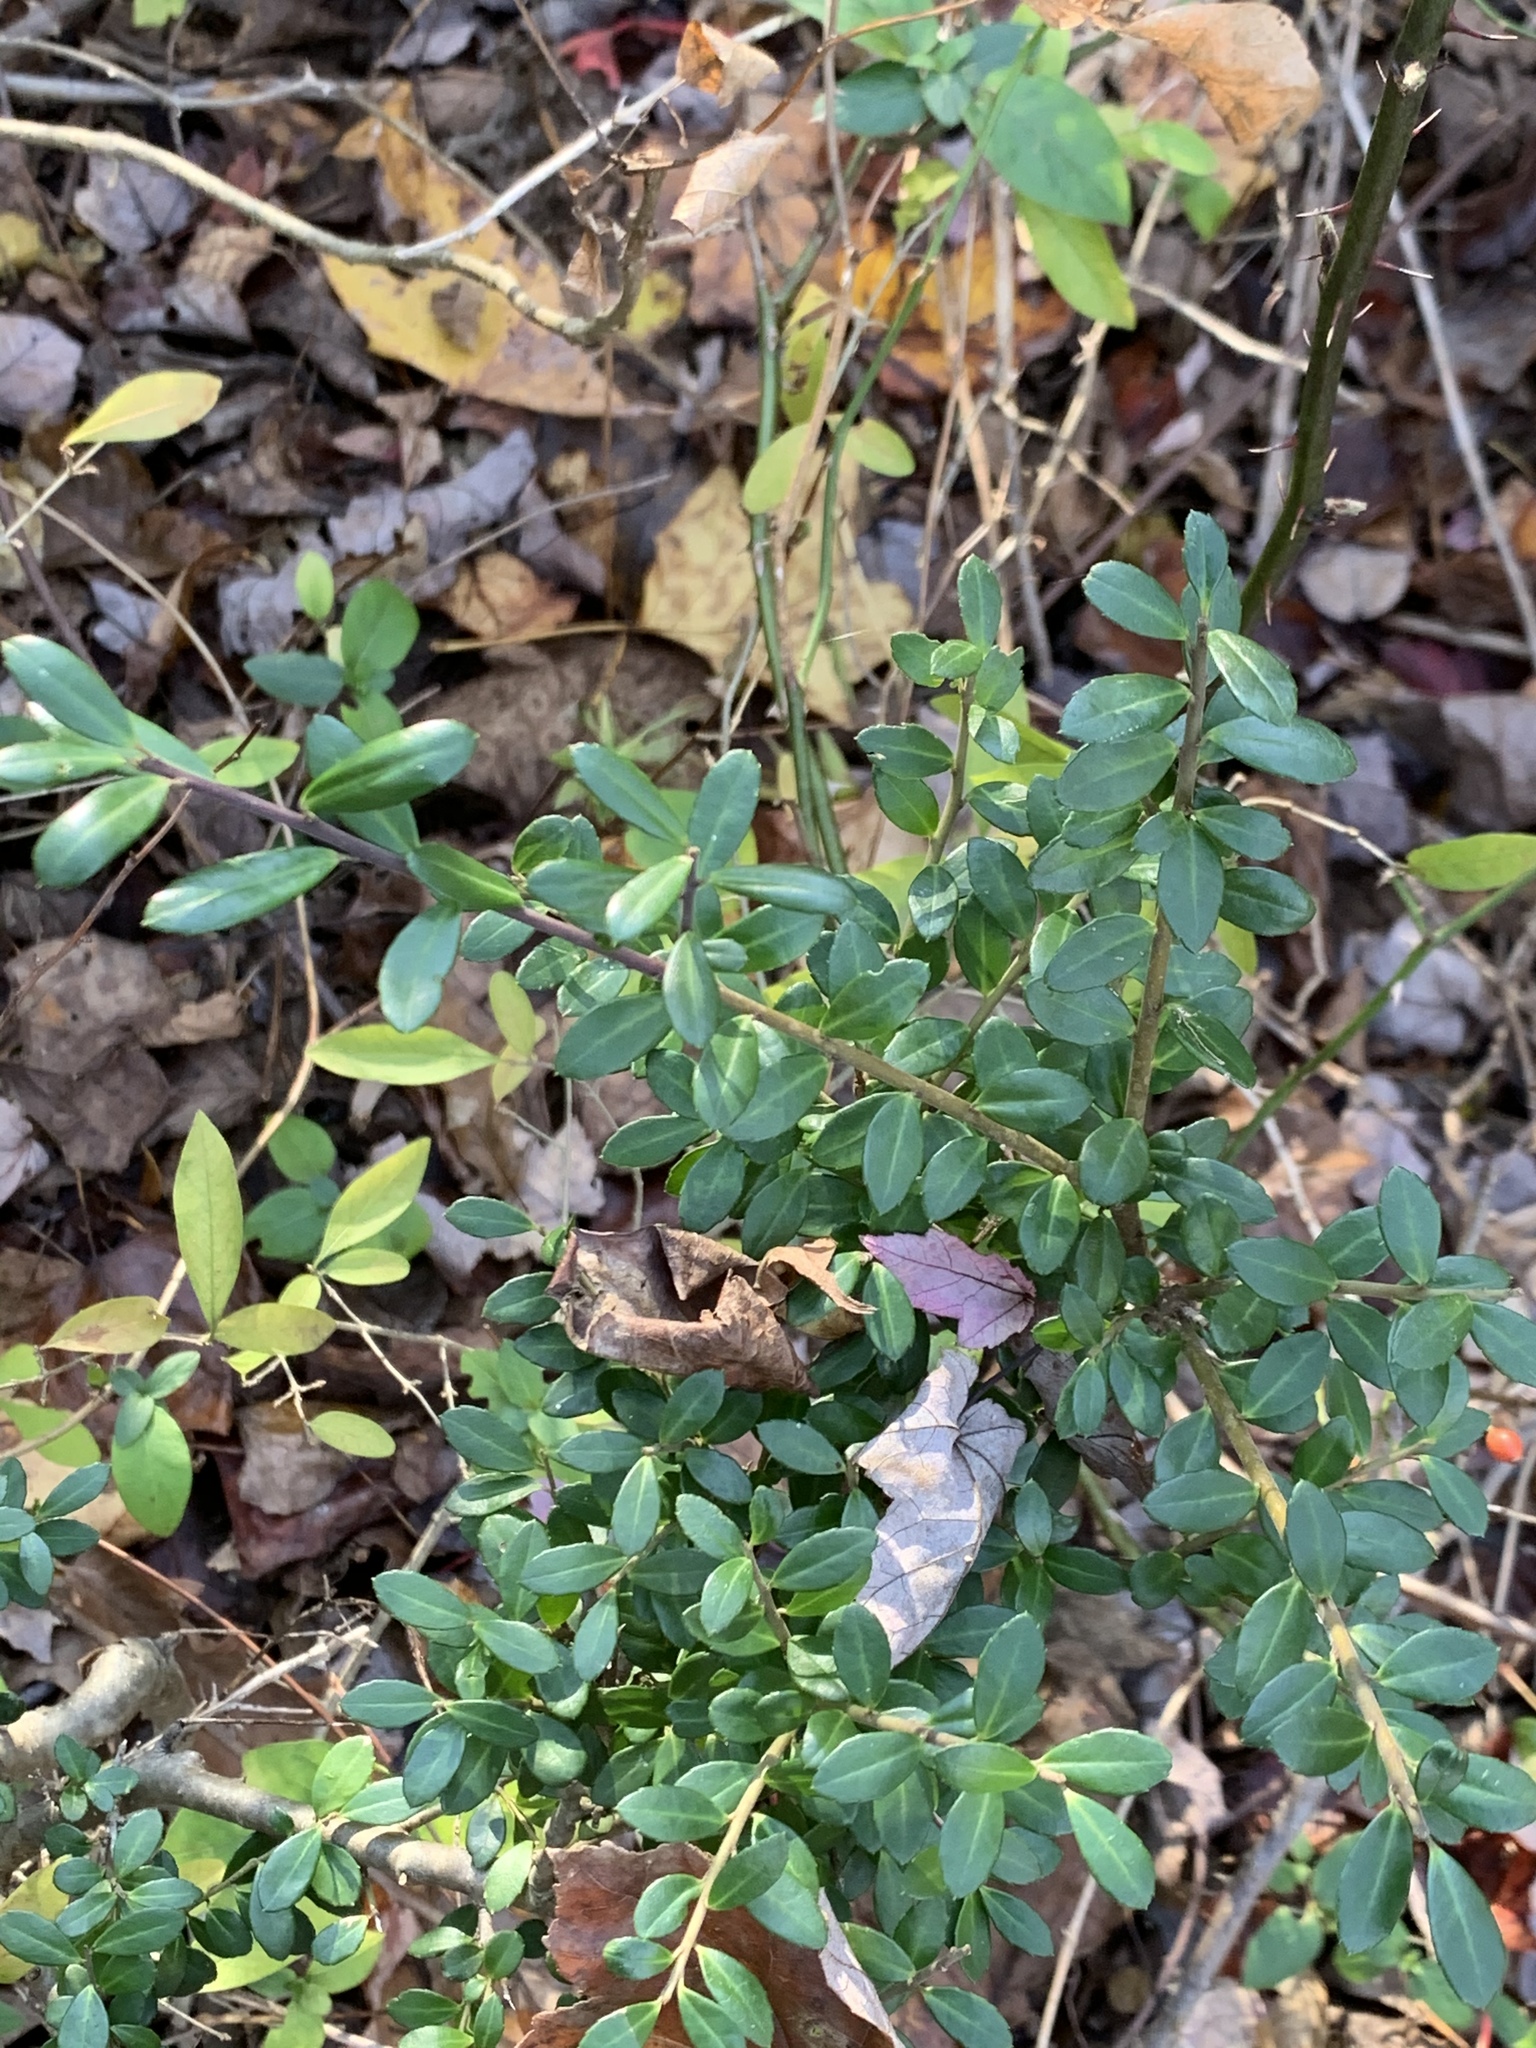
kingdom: Plantae
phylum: Tracheophyta
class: Magnoliopsida
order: Aquifoliales
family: Aquifoliaceae
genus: Ilex
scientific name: Ilex crenata
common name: Japanese holly
